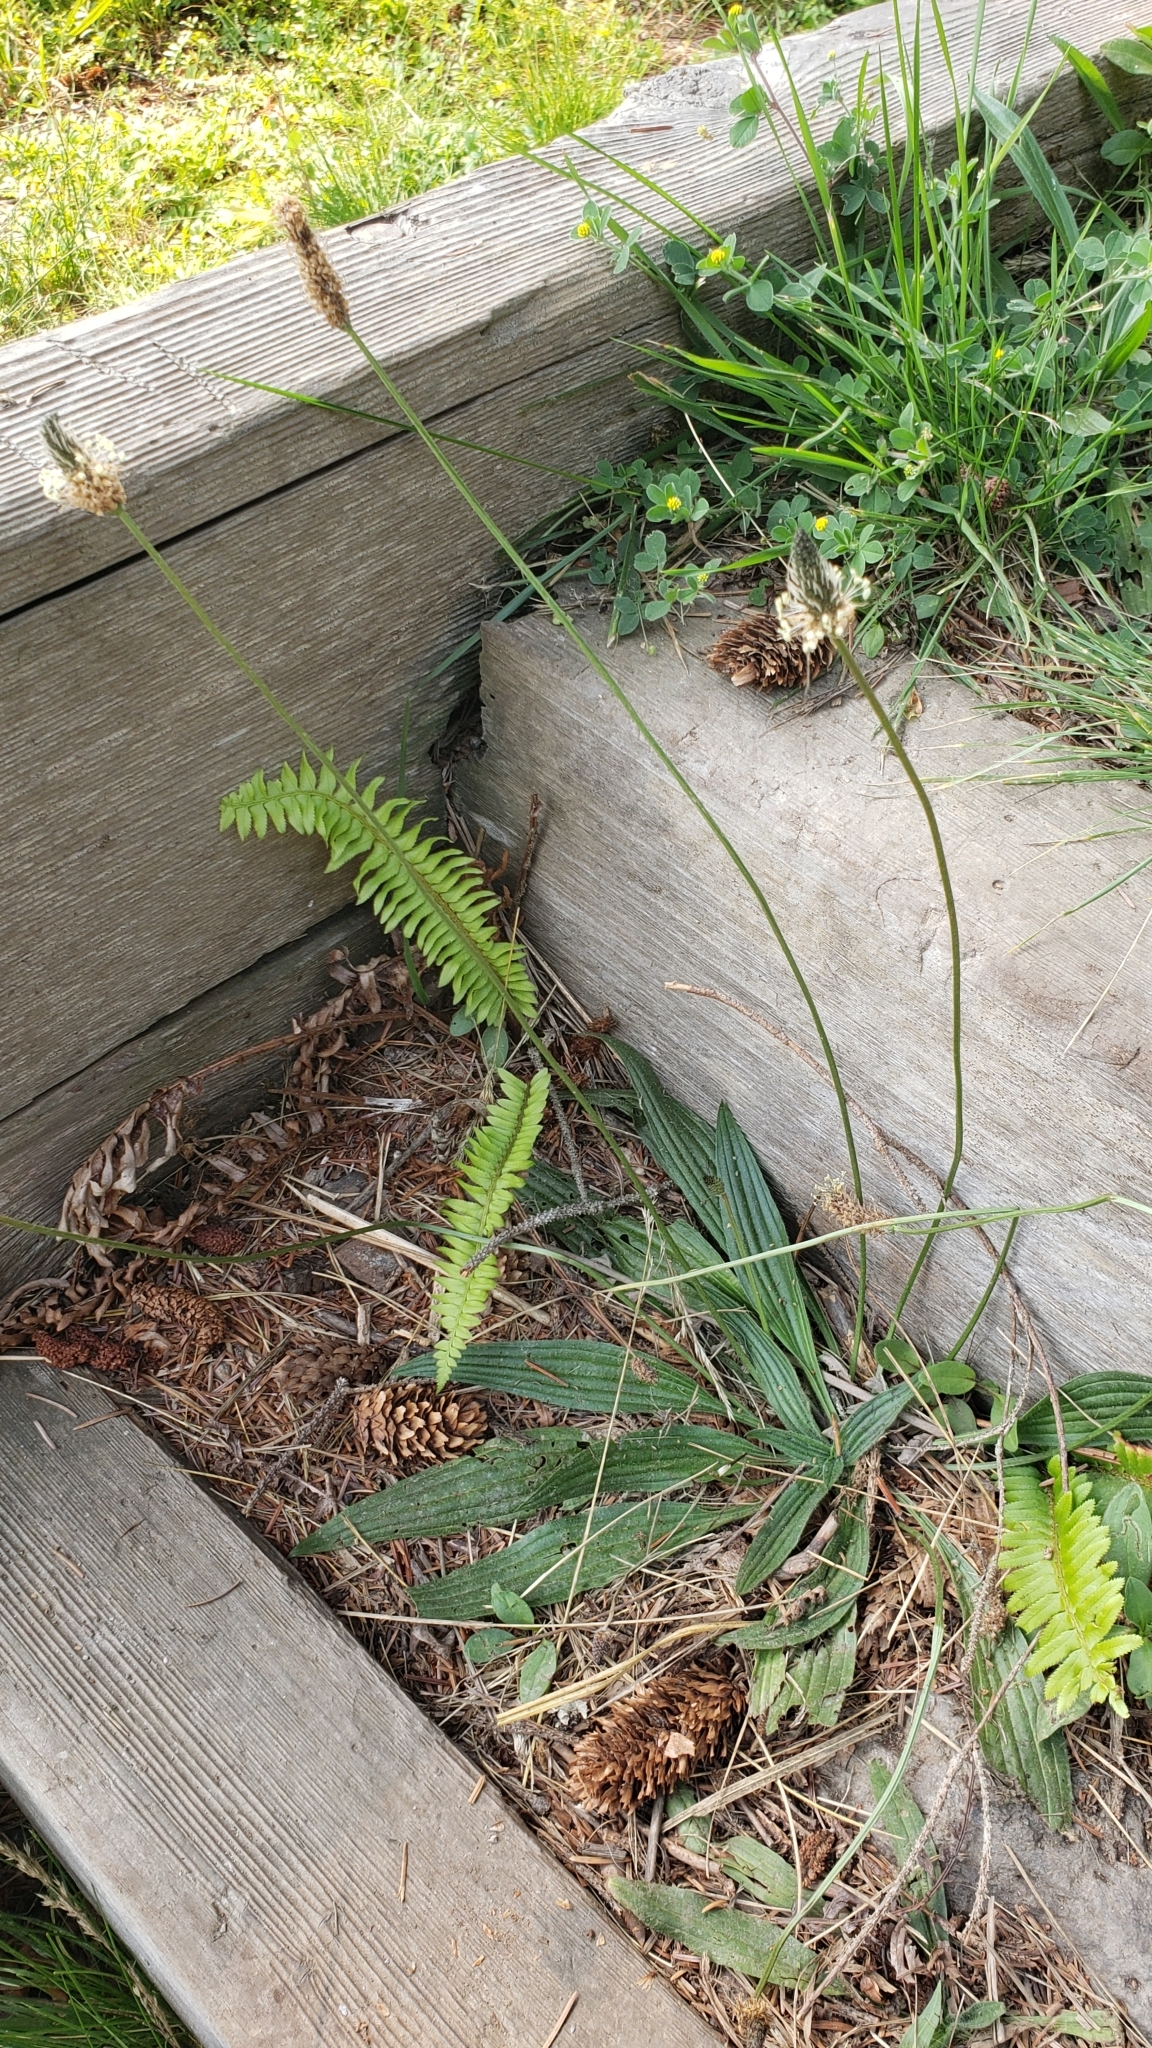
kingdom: Plantae
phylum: Tracheophyta
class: Magnoliopsida
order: Lamiales
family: Plantaginaceae
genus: Plantago
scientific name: Plantago lanceolata
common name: Ribwort plantain
